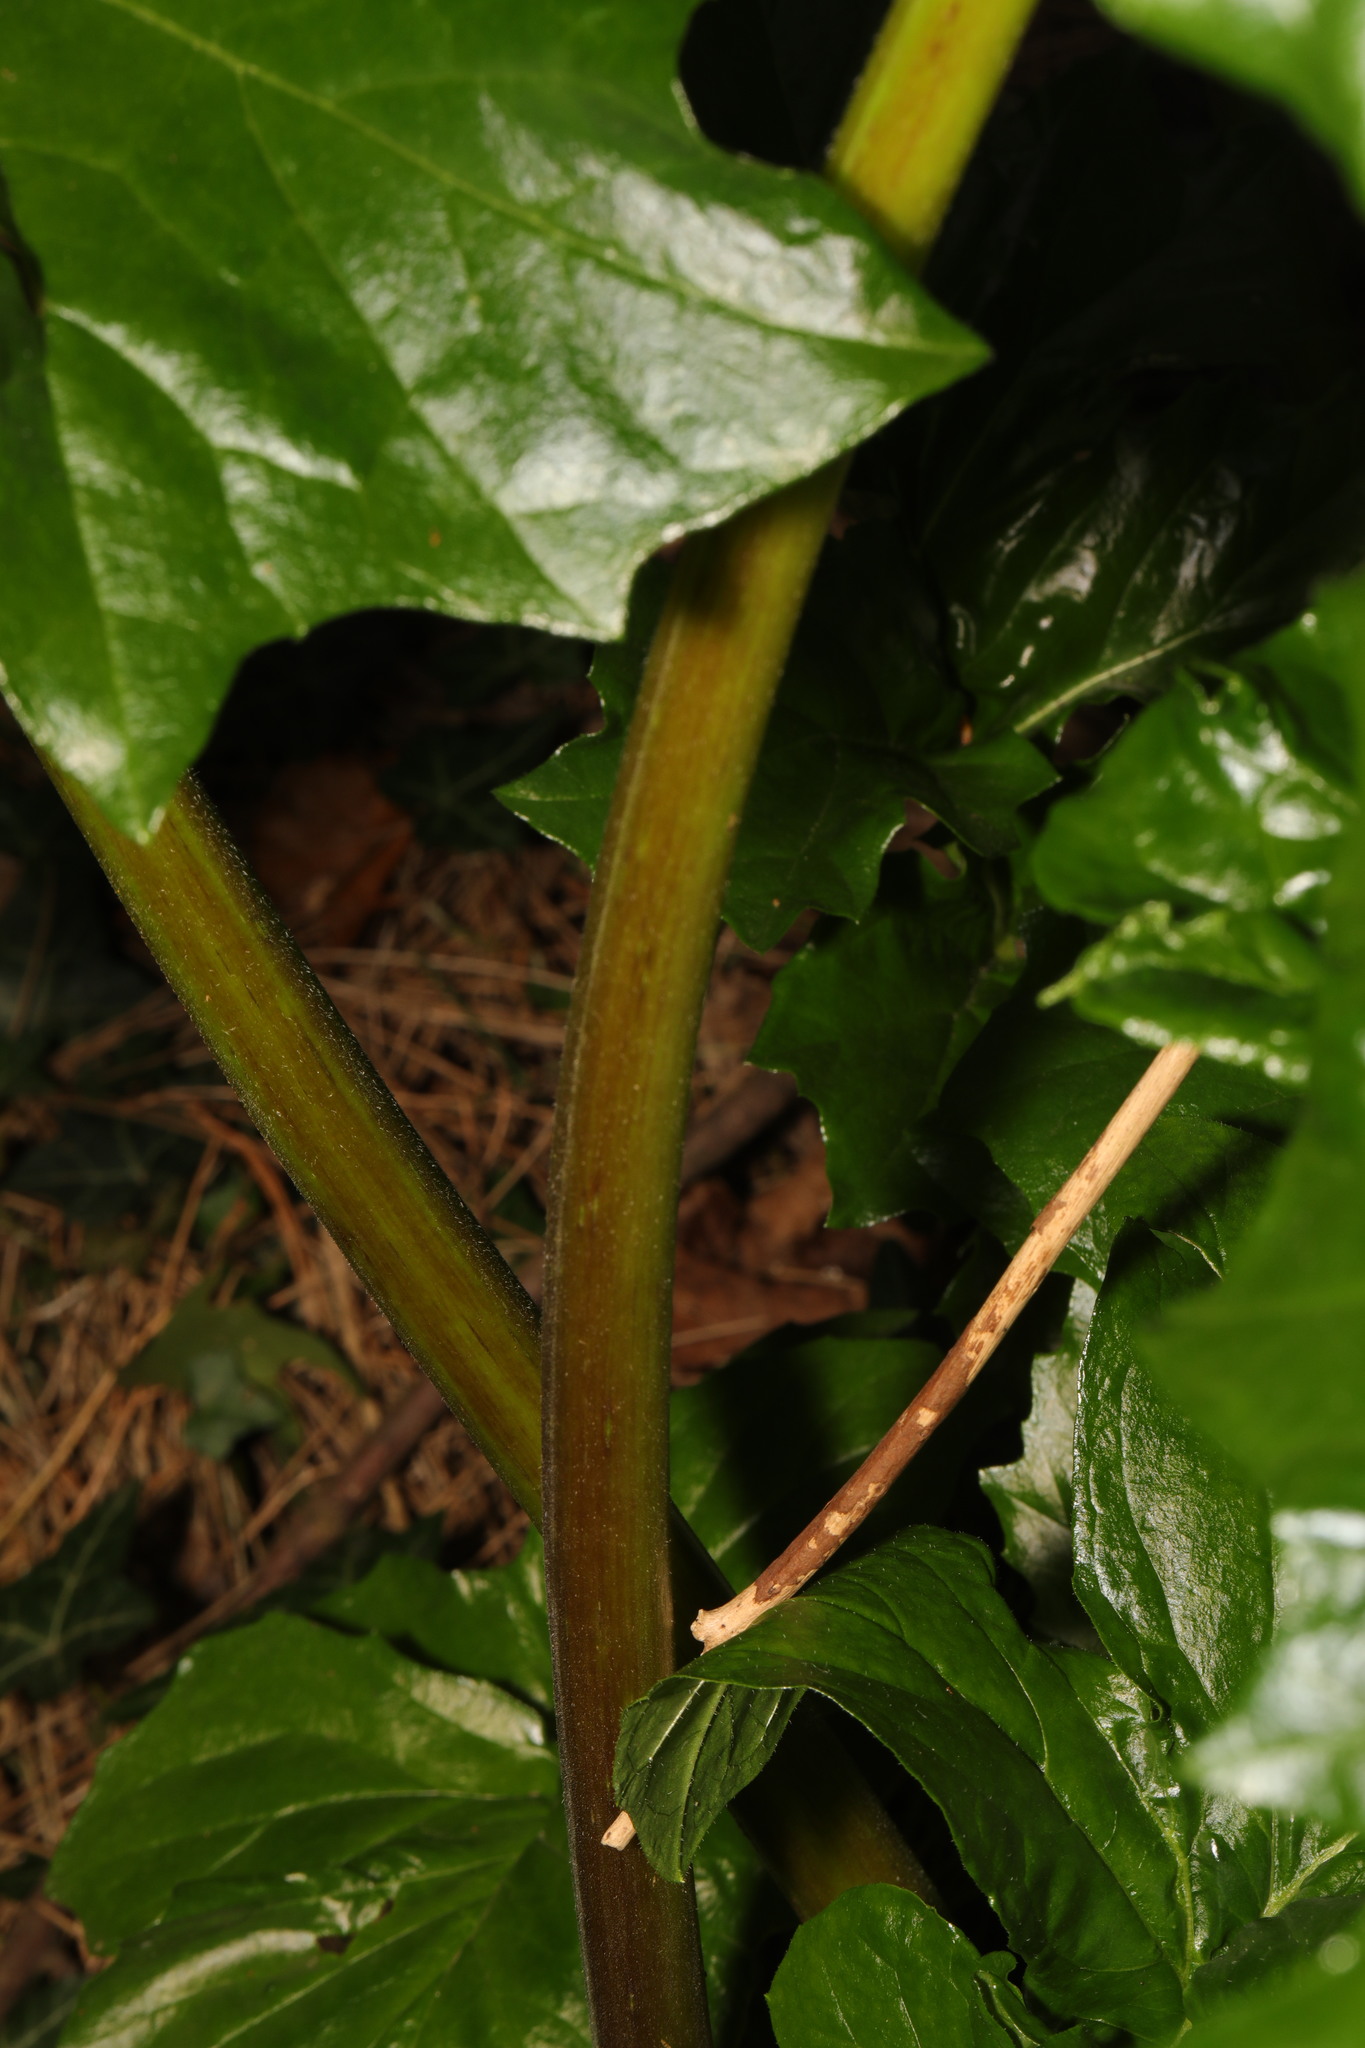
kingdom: Plantae
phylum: Tracheophyta
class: Magnoliopsida
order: Lamiales
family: Acanthaceae
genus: Acanthus
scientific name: Acanthus mollis
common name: Bear's-breech
